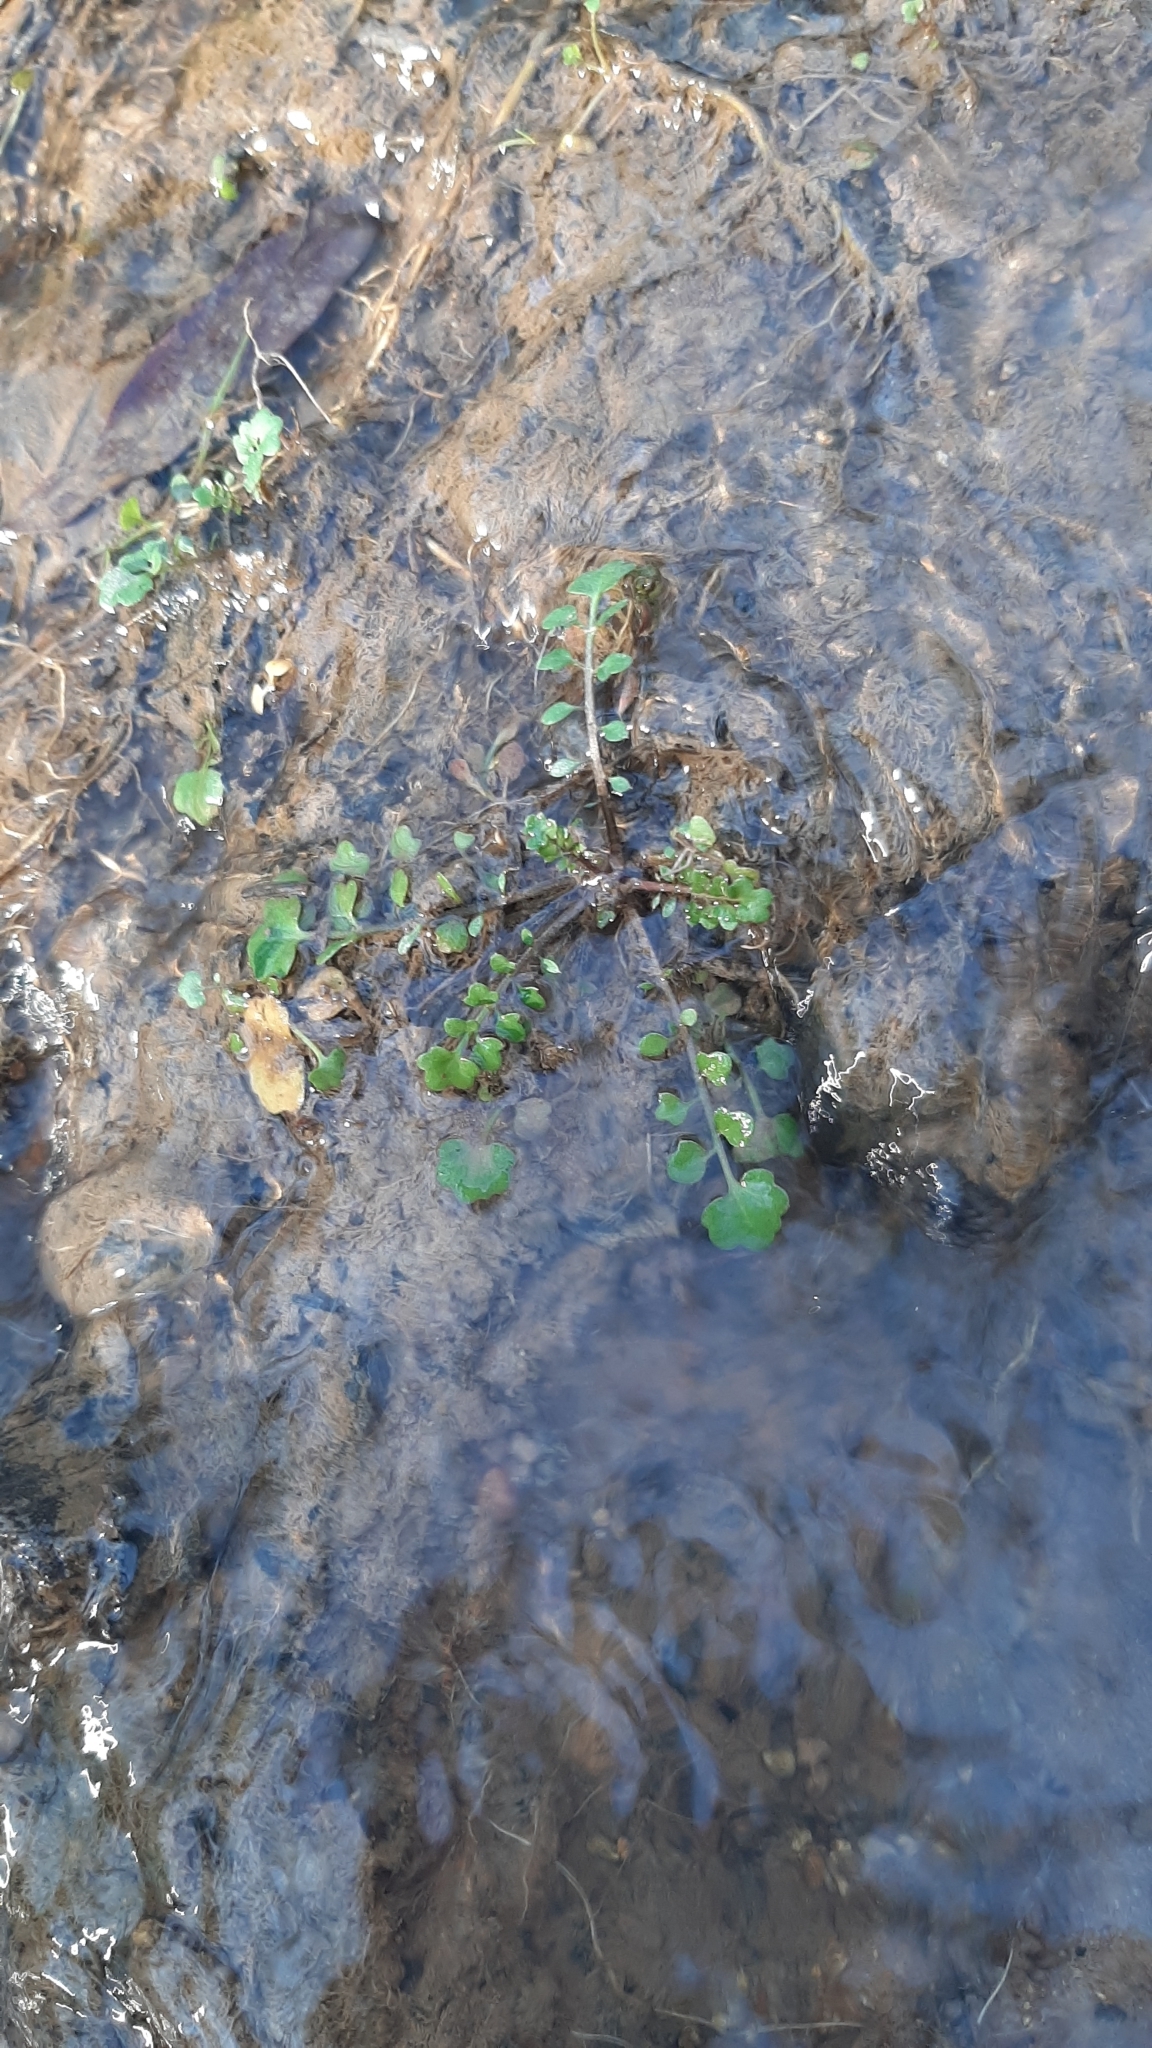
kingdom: Plantae
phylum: Tracheophyta
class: Magnoliopsida
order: Brassicales
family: Brassicaceae
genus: Cardamine
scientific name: Cardamine occulta
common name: Asian wavy bittercress
